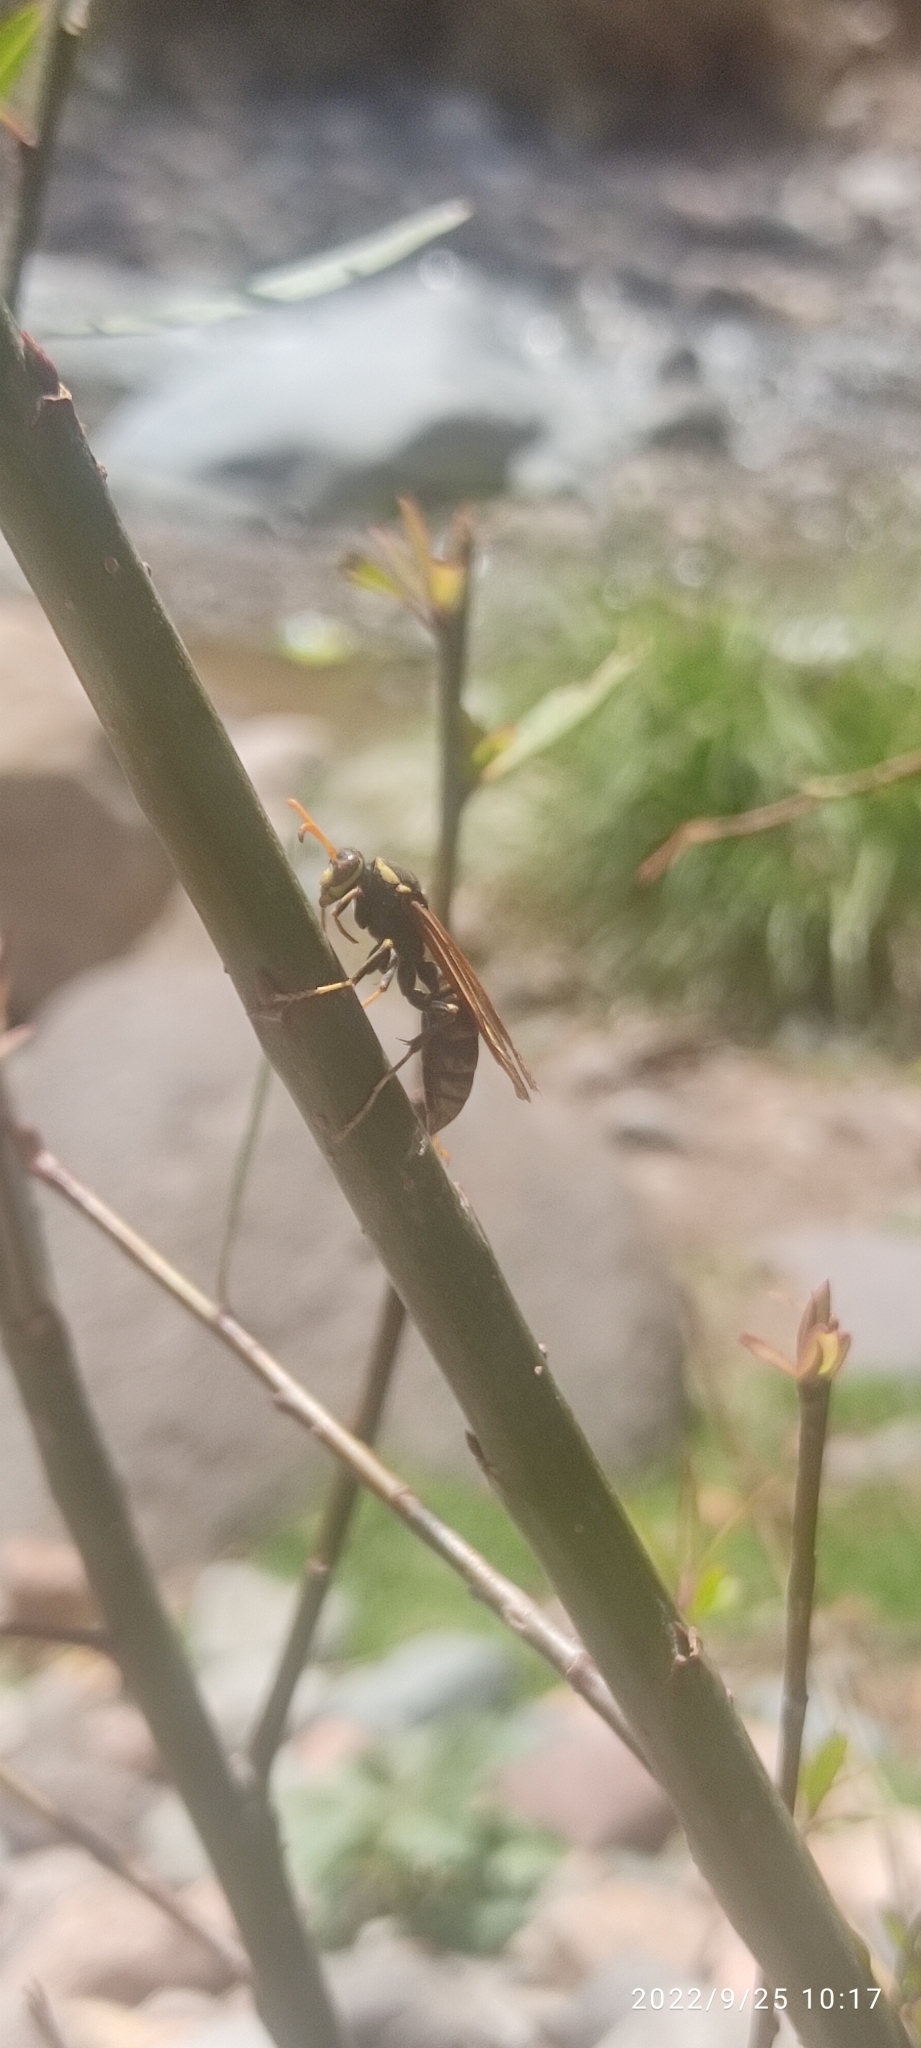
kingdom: Animalia
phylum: Arthropoda
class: Insecta
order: Hymenoptera
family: Eumenidae
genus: Polistes
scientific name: Polistes xanthogaster
